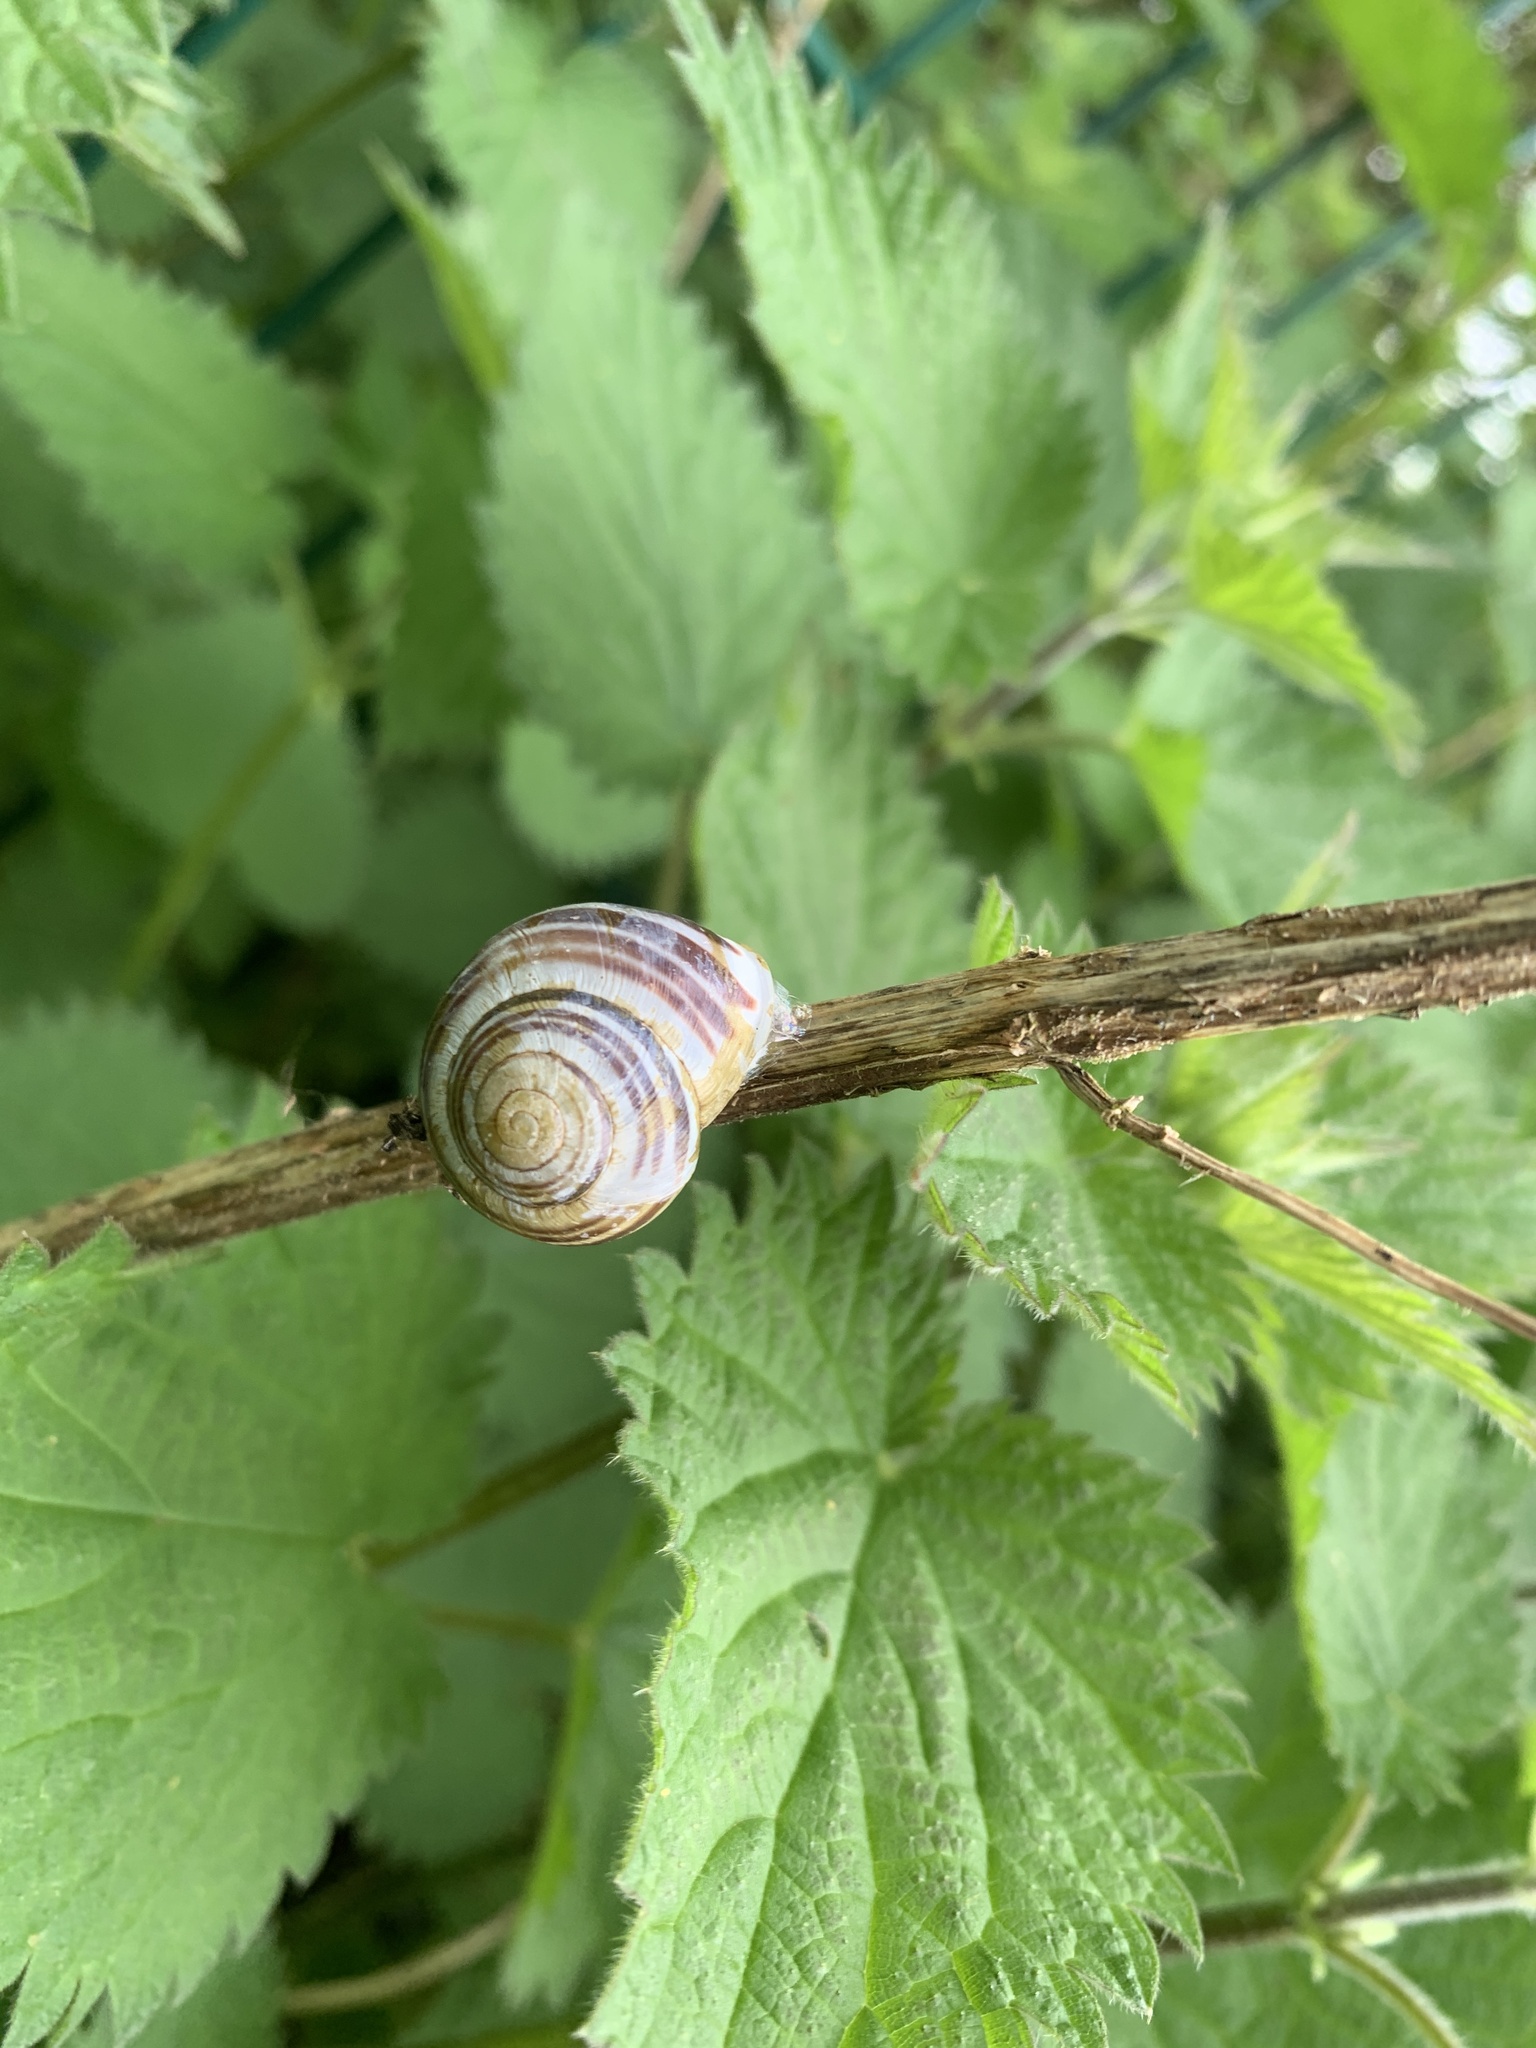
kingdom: Animalia
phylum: Mollusca
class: Gastropoda
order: Stylommatophora
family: Helicidae
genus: Cepaea
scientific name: Cepaea hortensis
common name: White-lip gardensnail
